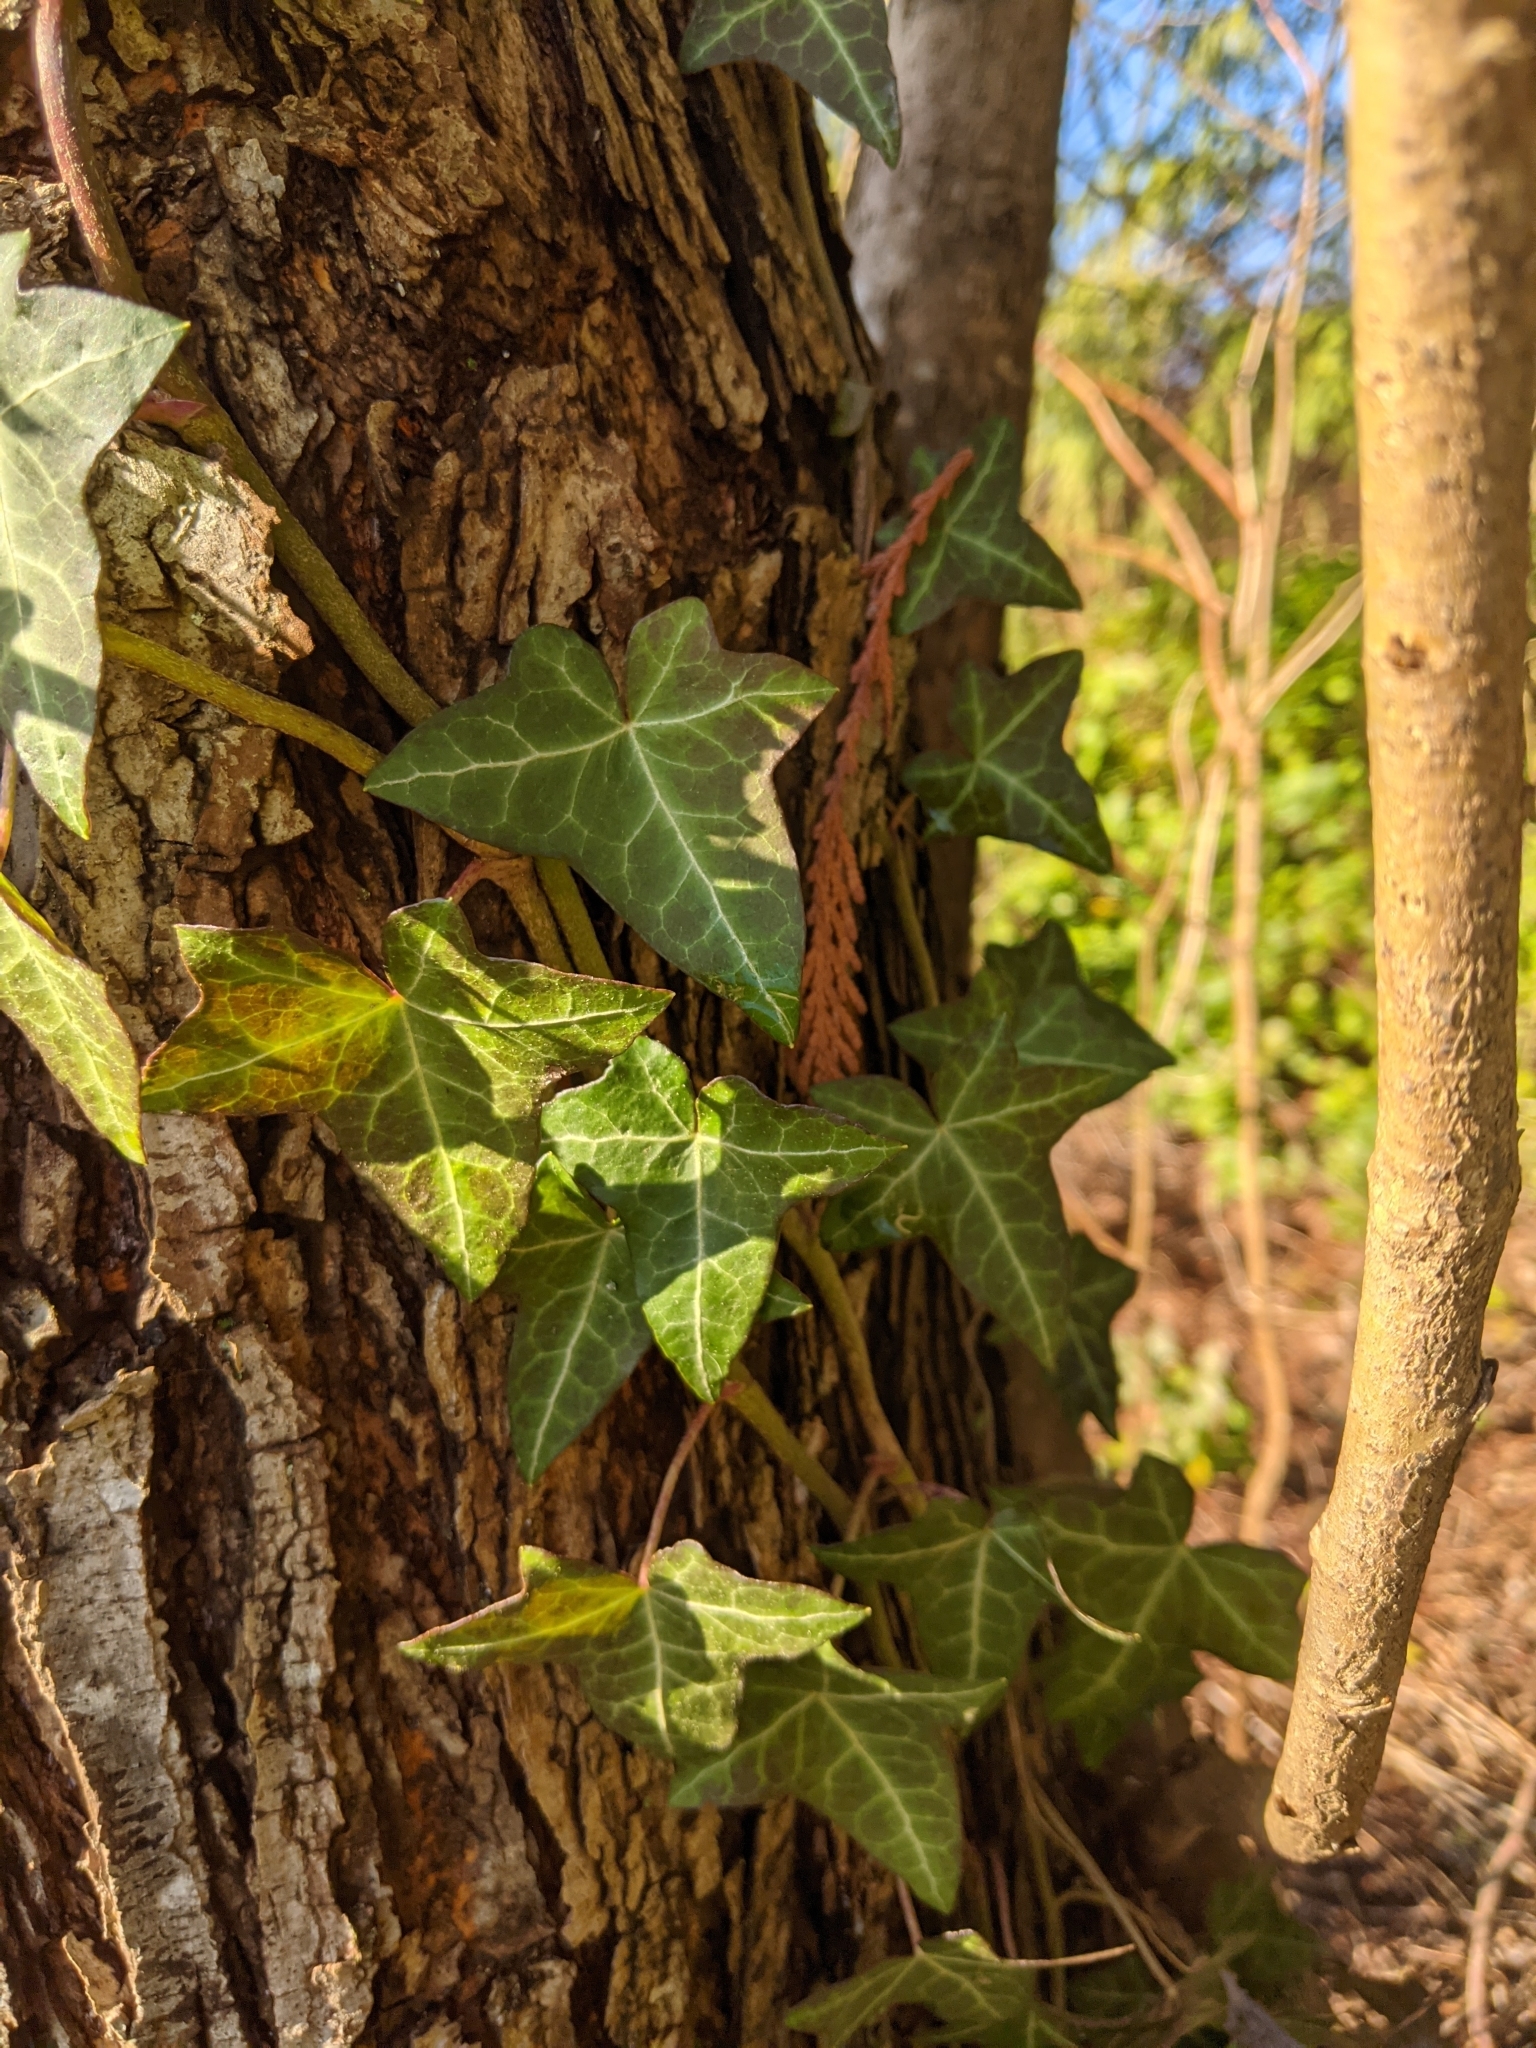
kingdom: Plantae
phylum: Tracheophyta
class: Magnoliopsida
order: Apiales
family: Araliaceae
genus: Hedera
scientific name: Hedera helix
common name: Ivy
